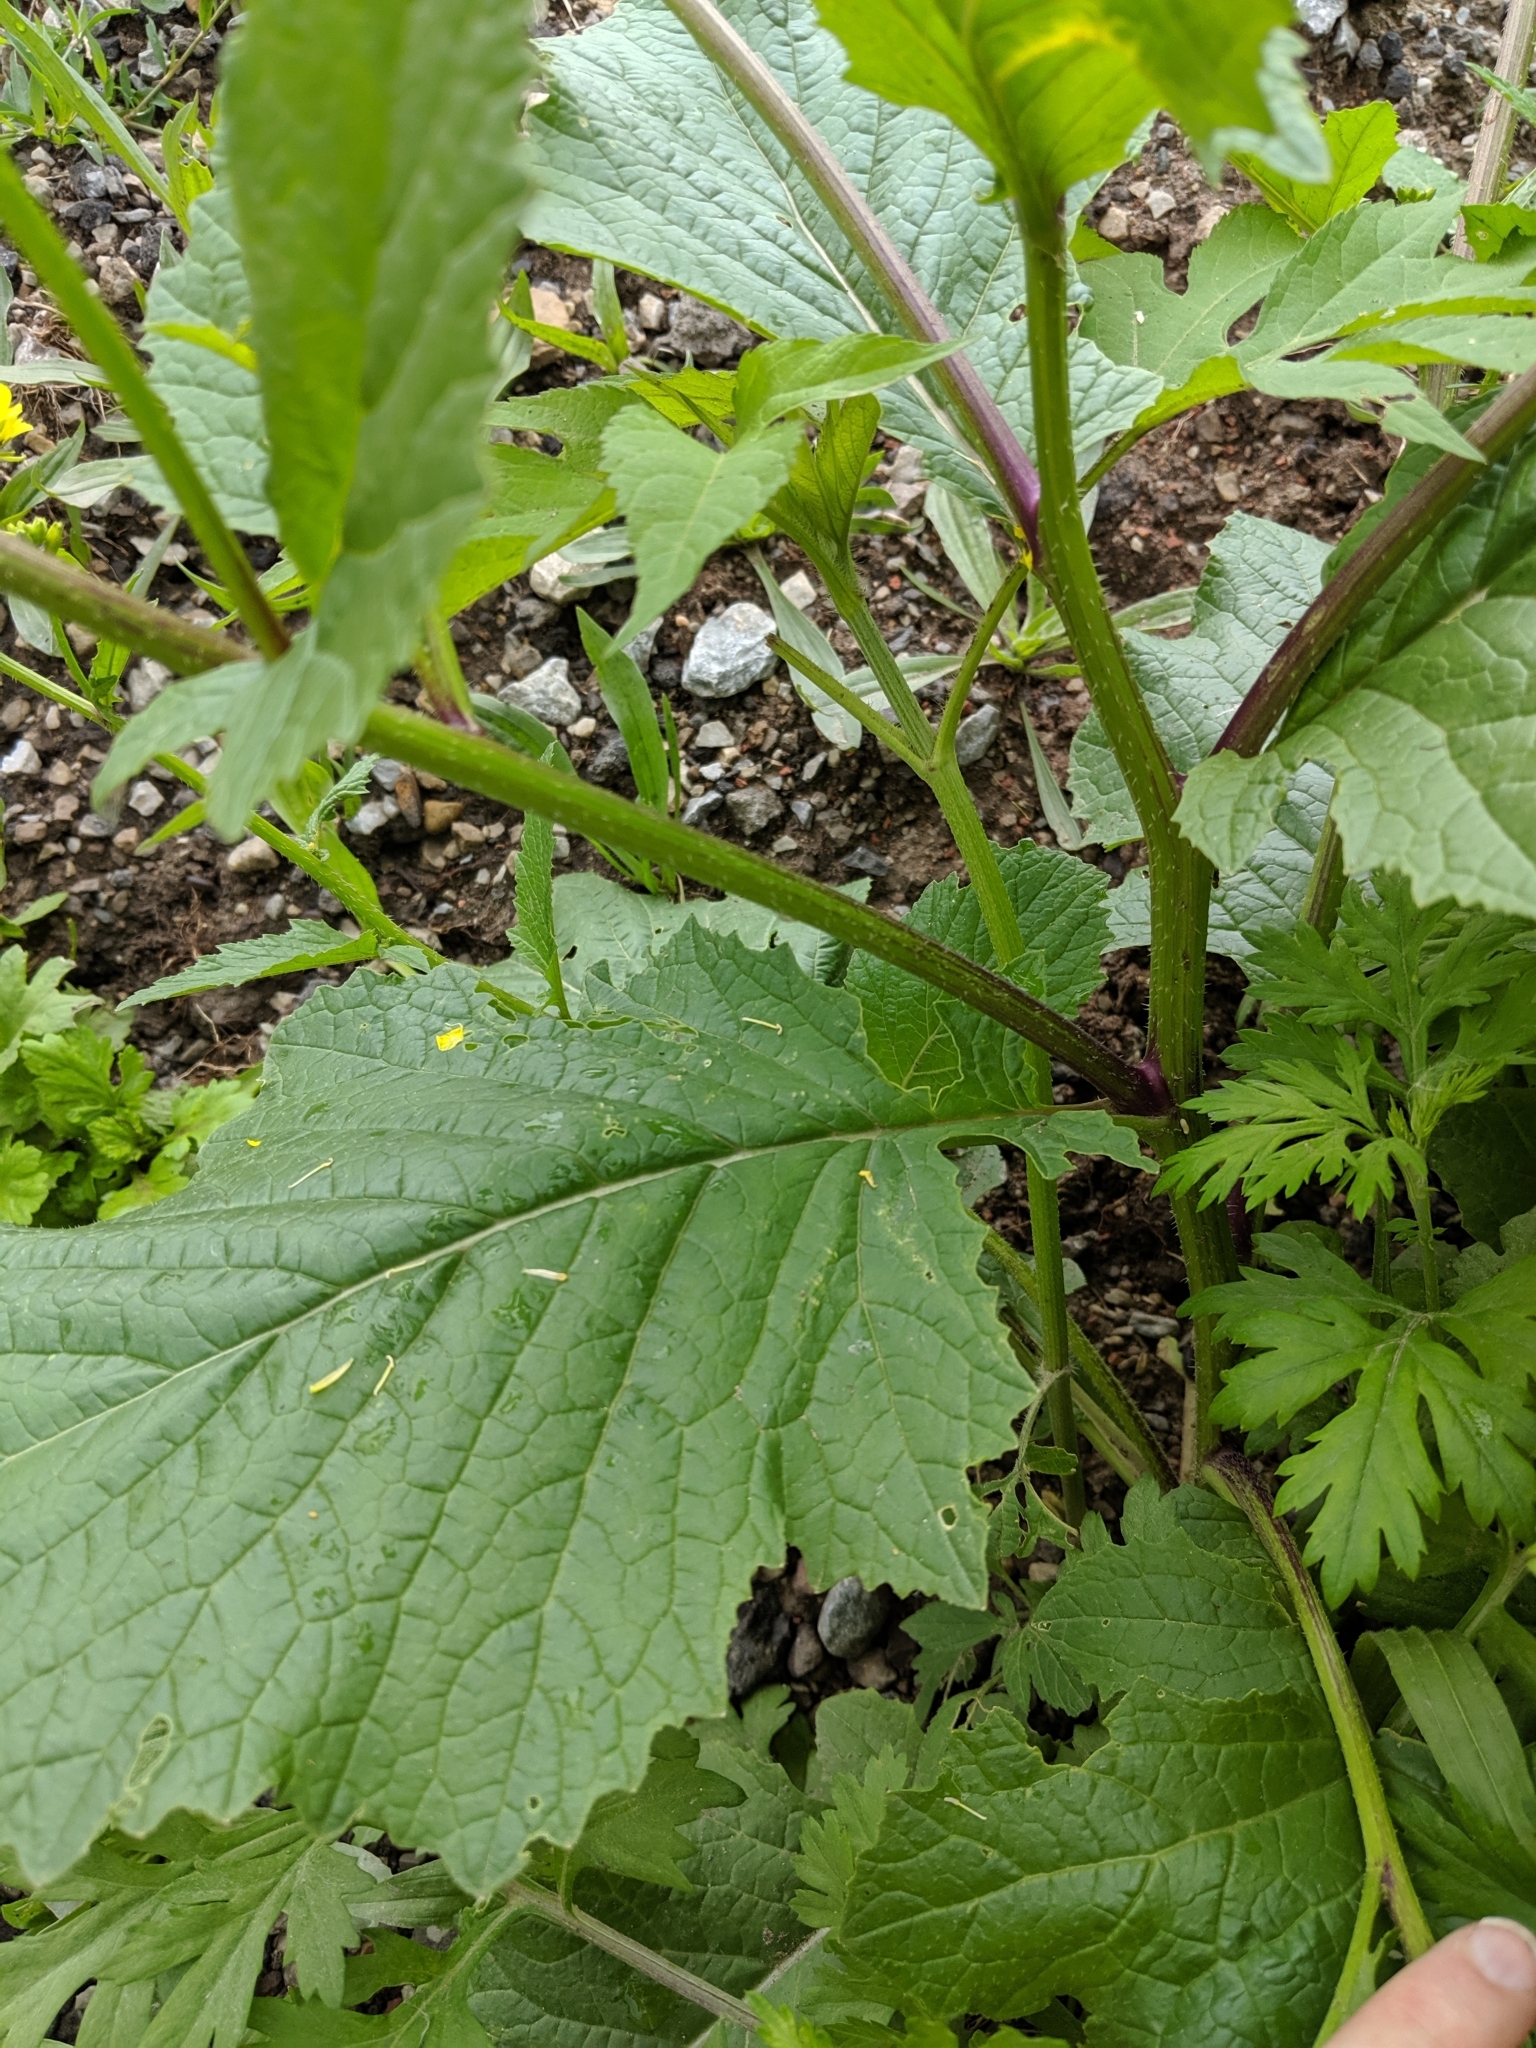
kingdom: Plantae
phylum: Tracheophyta
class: Magnoliopsida
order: Brassicales
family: Brassicaceae
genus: Sinapis
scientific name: Sinapis arvensis
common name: Charlock
